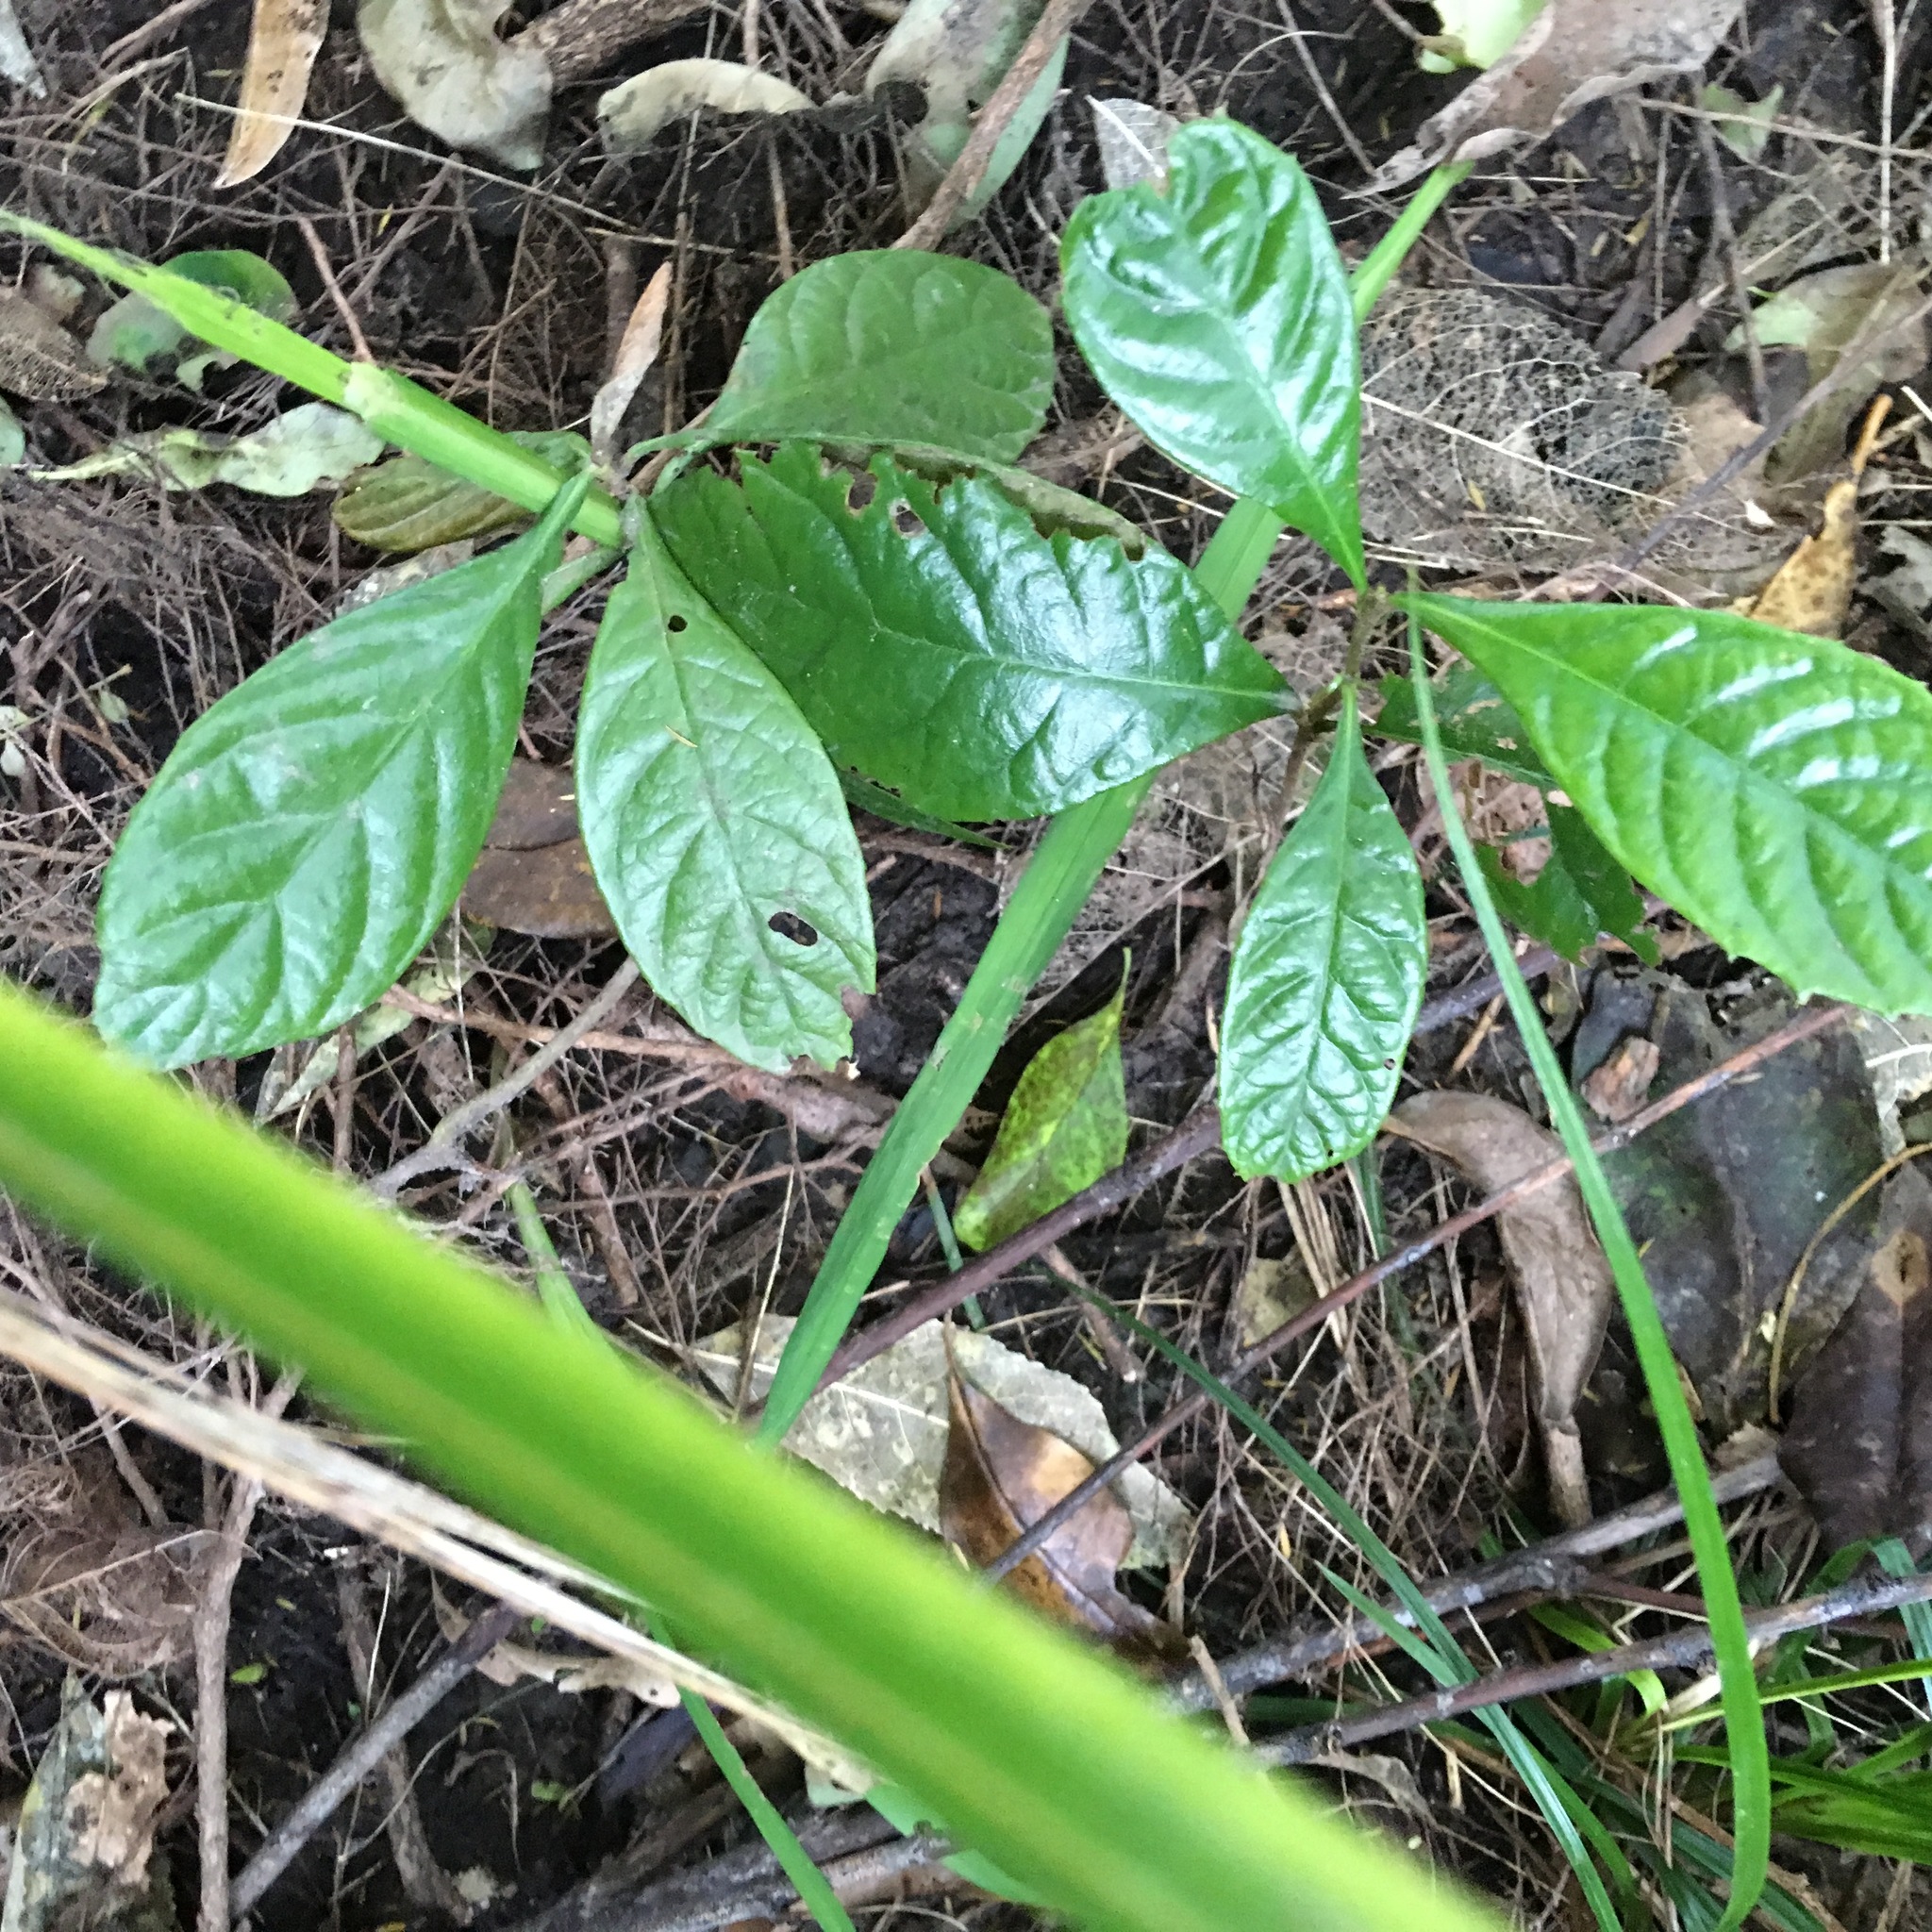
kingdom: Plantae
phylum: Tracheophyta
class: Magnoliopsida
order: Rosales
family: Rosaceae
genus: Rhaphiolepis
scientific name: Rhaphiolepis bibas
